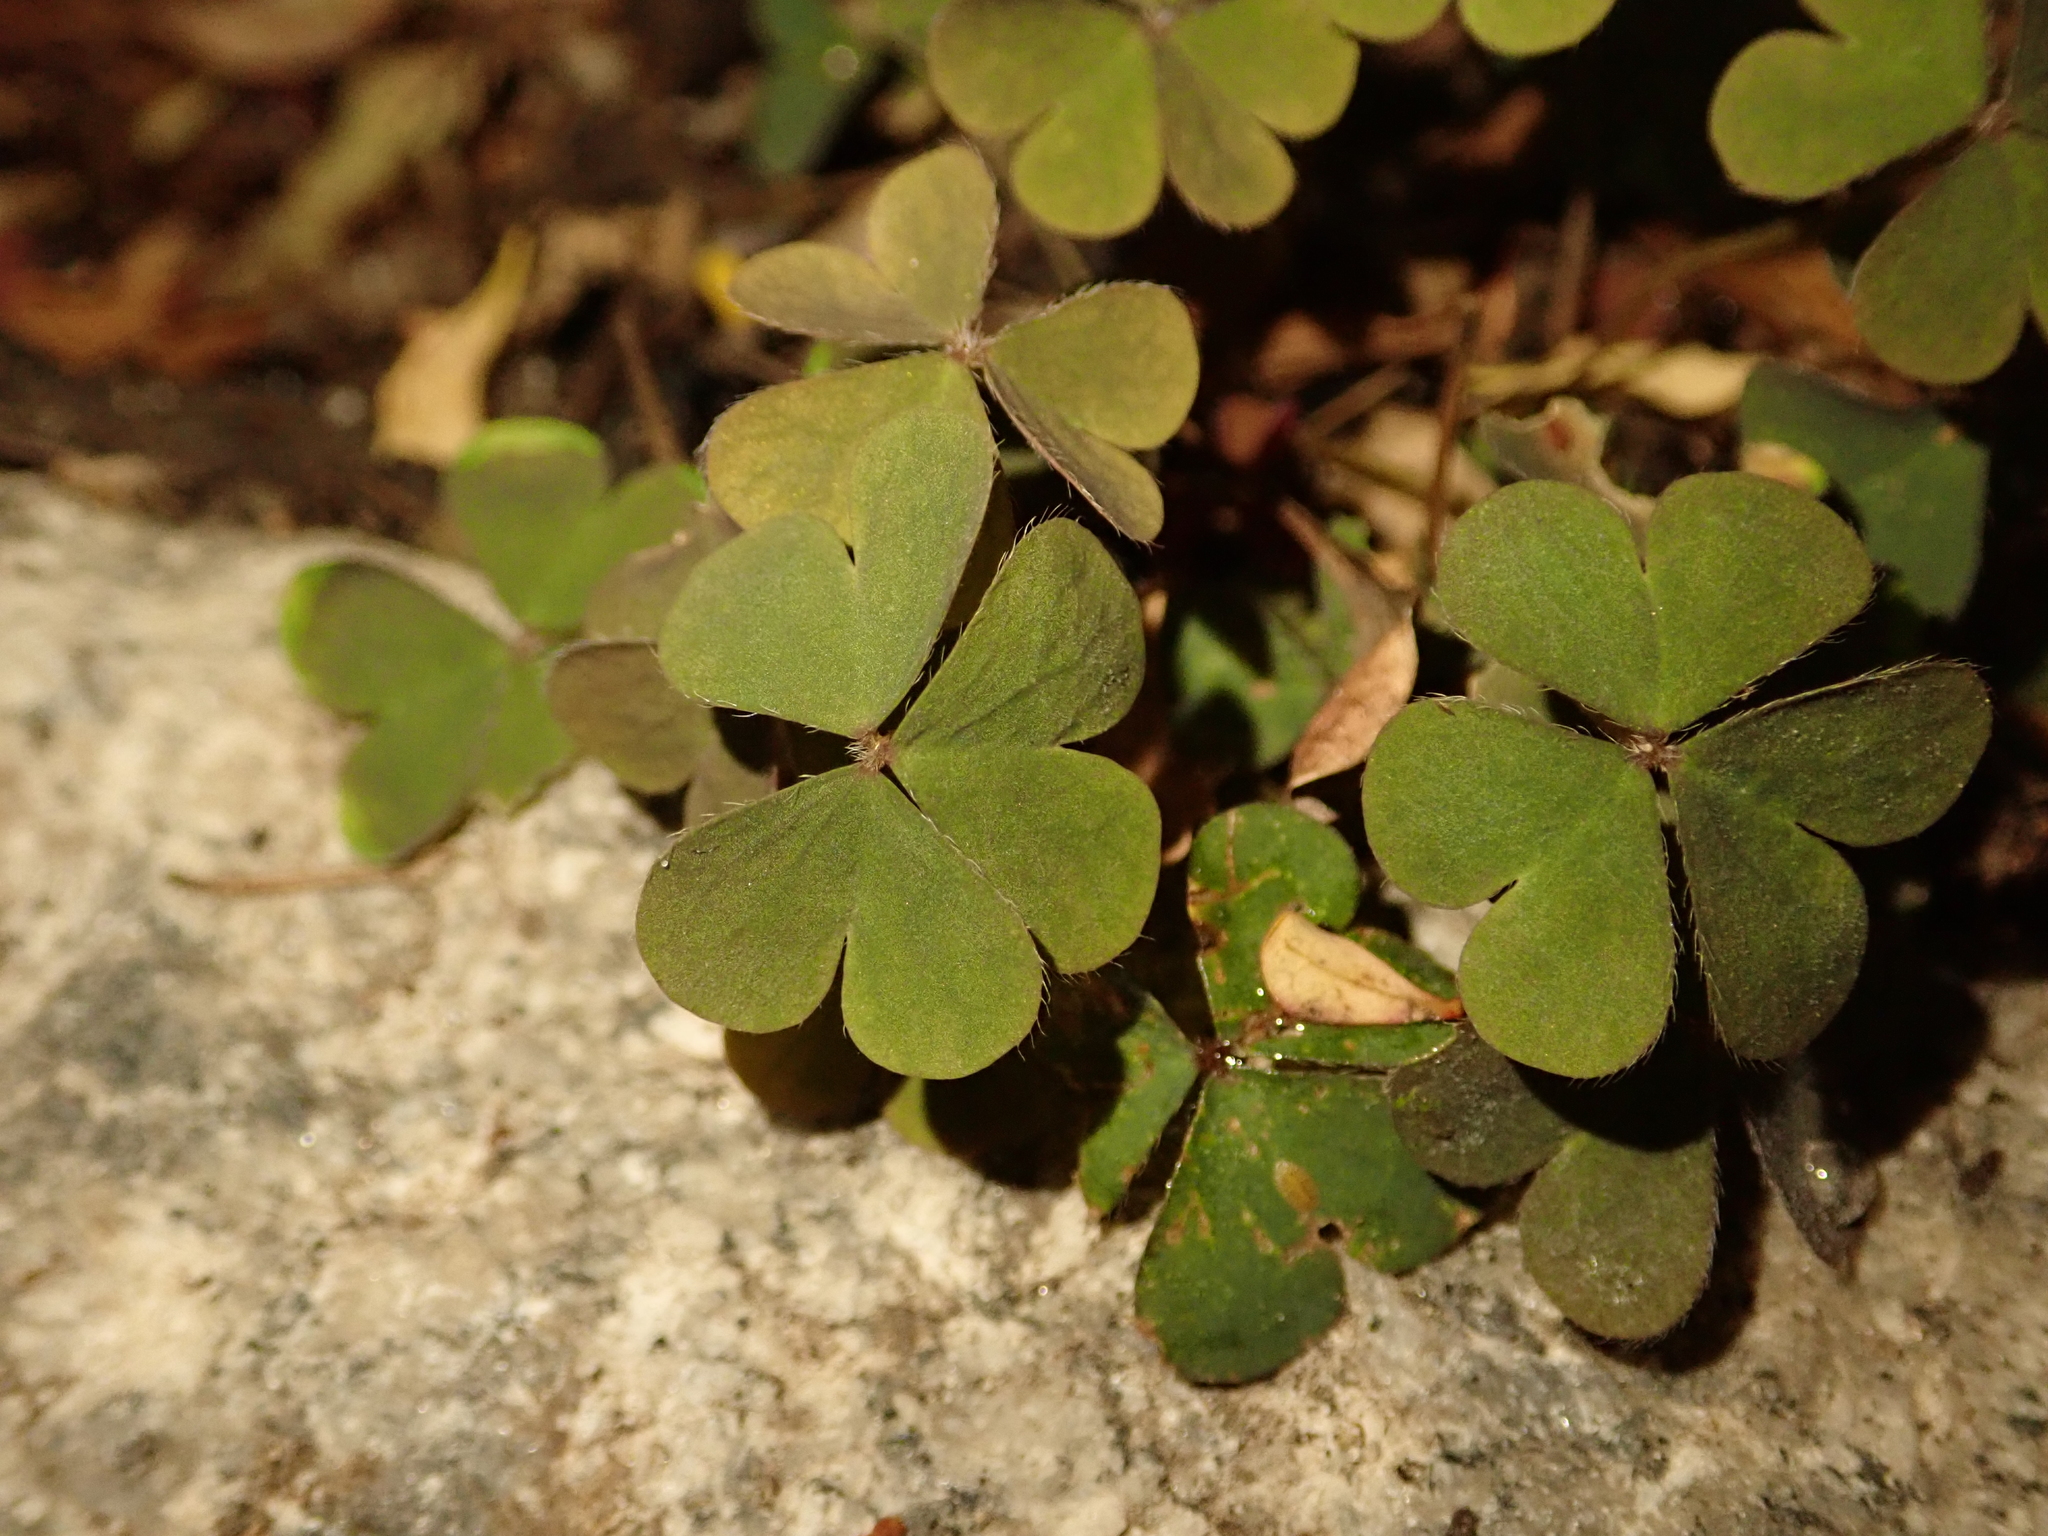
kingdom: Plantae
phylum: Tracheophyta
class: Magnoliopsida
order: Oxalidales
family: Oxalidaceae
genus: Oxalis
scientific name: Oxalis corniculata
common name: Procumbent yellow-sorrel
